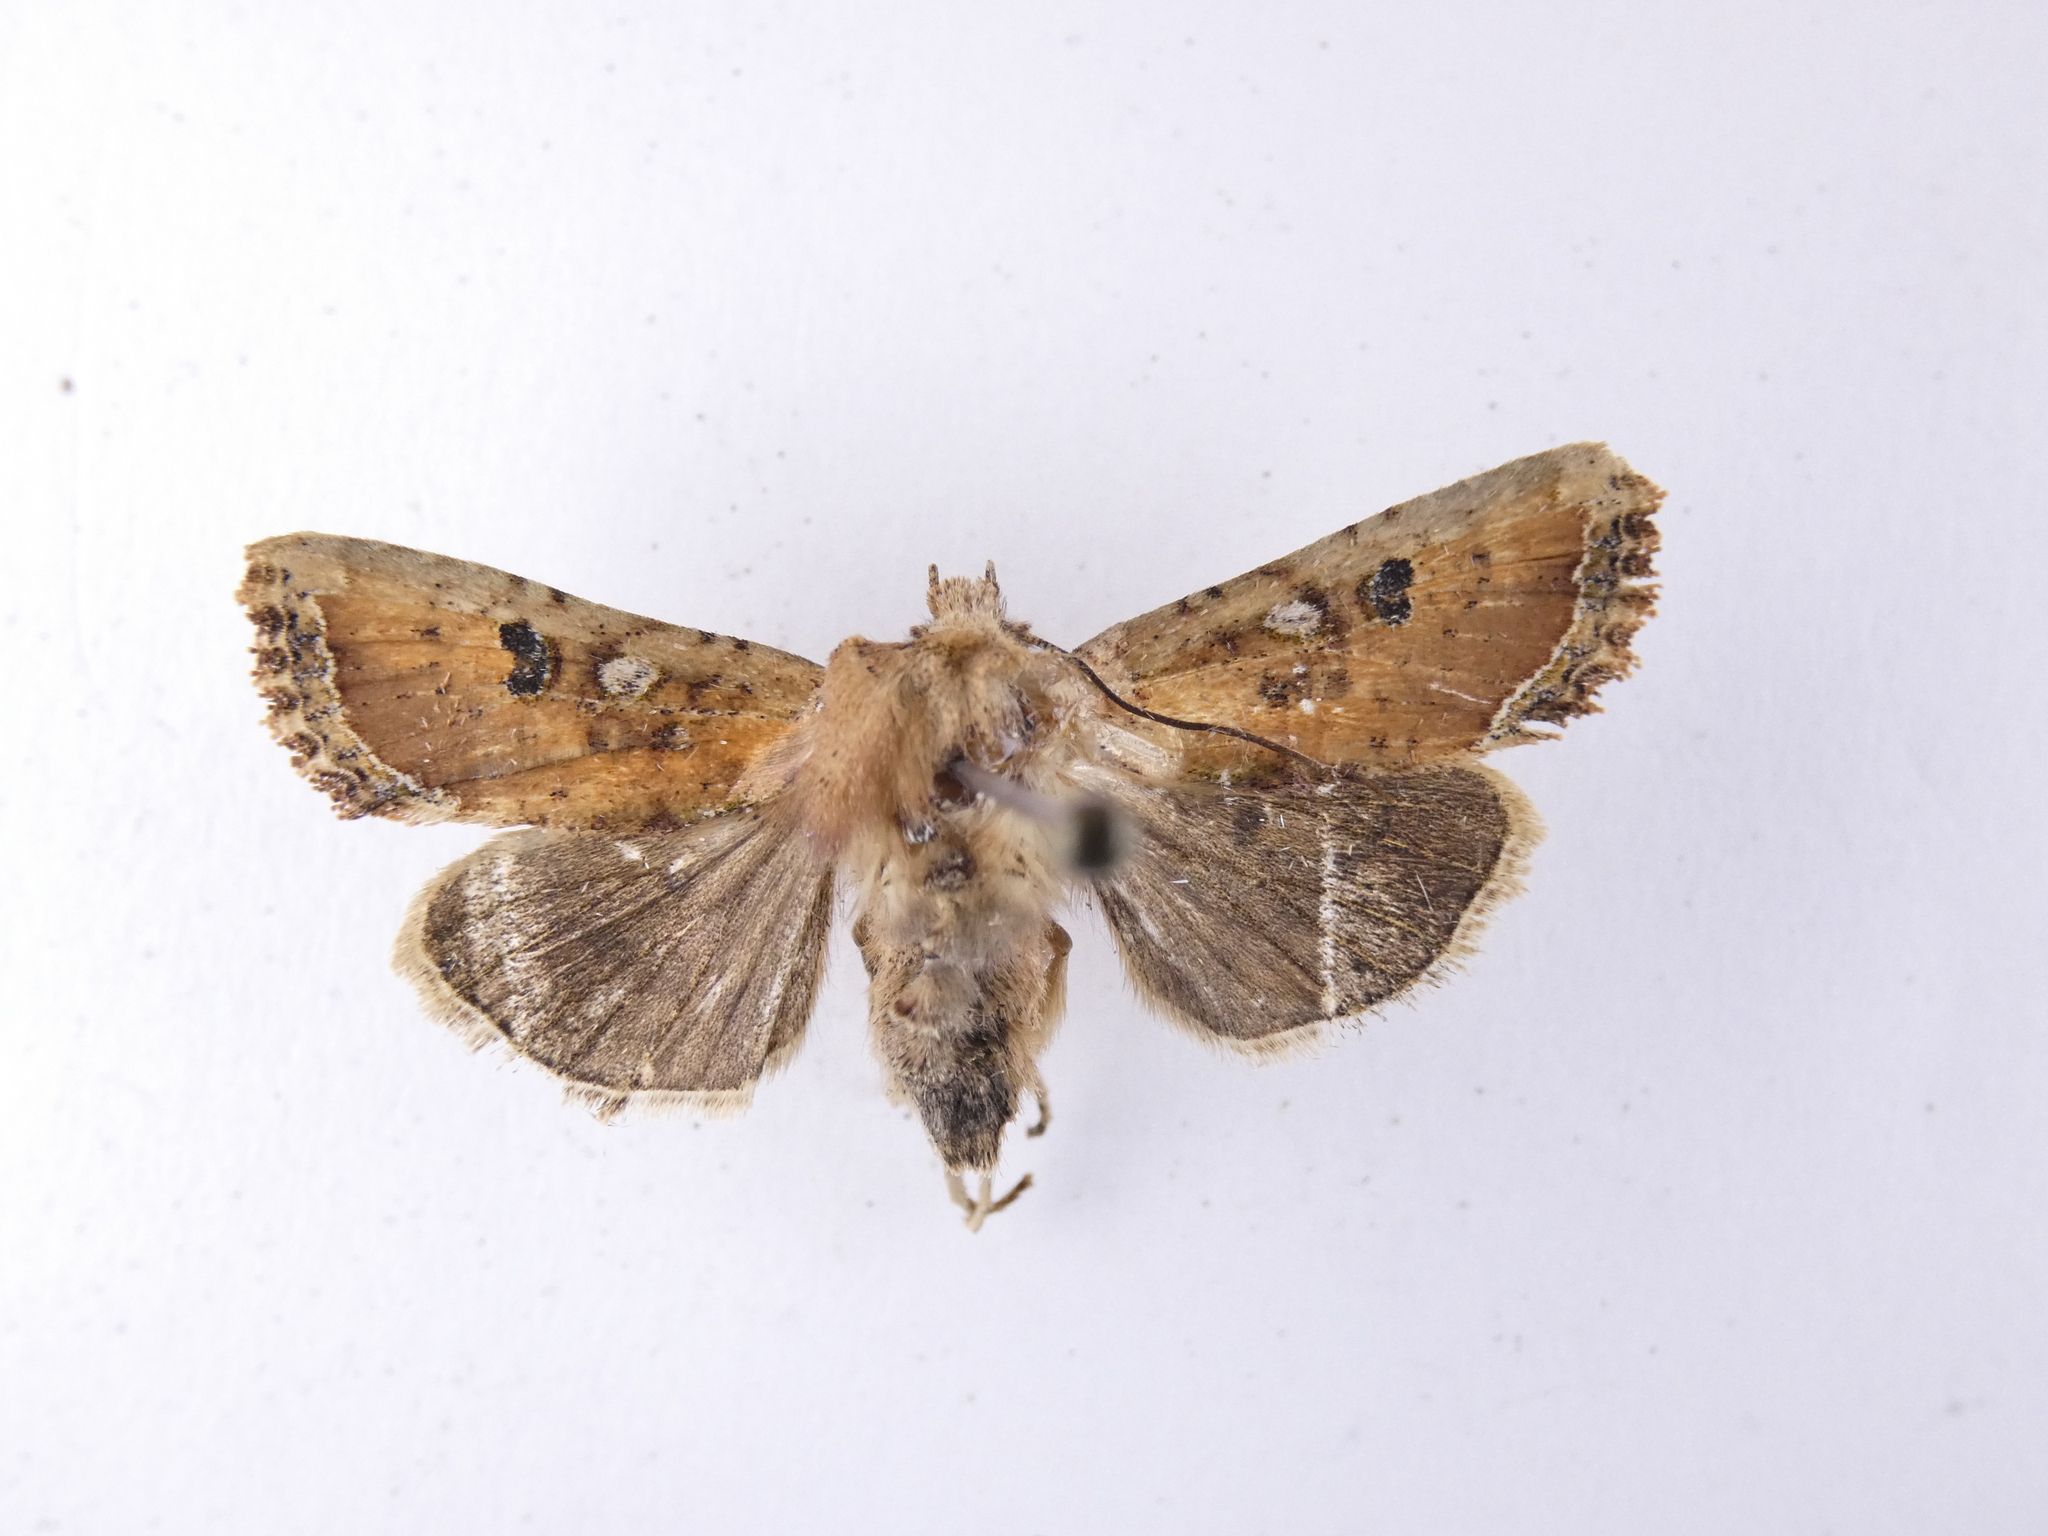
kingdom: Animalia
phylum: Arthropoda
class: Insecta
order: Lepidoptera
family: Noctuidae
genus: Meterana
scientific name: Meterana inchoata
